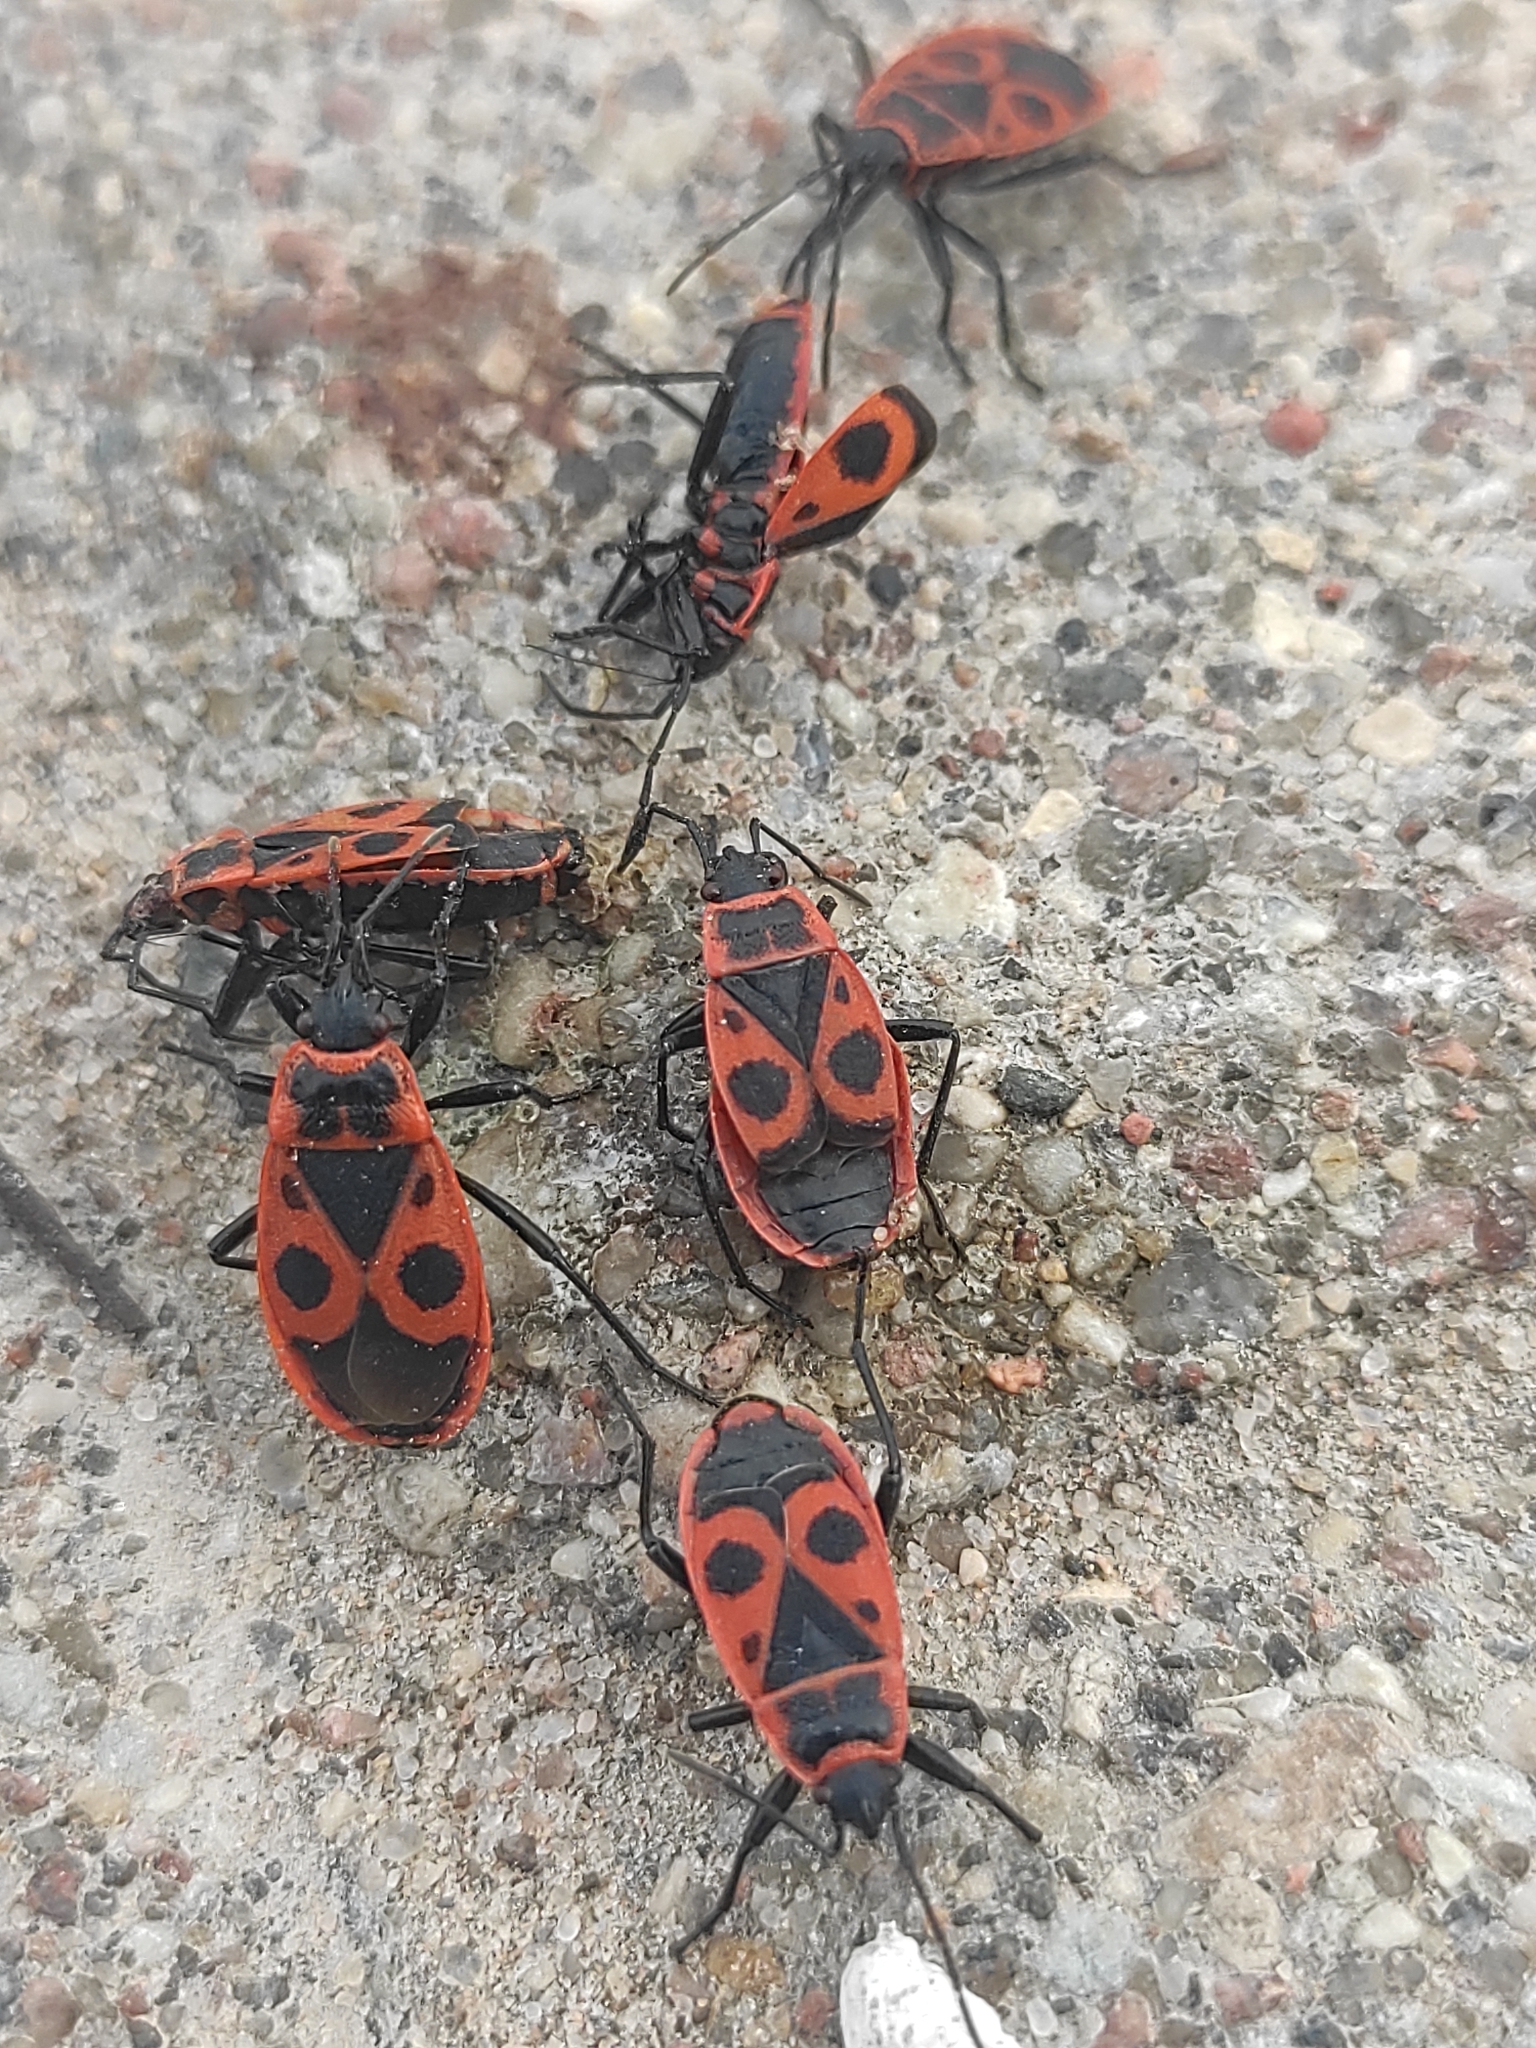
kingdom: Animalia
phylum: Arthropoda
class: Insecta
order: Hemiptera
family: Pyrrhocoridae
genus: Pyrrhocoris
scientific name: Pyrrhocoris apterus
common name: Firebug
